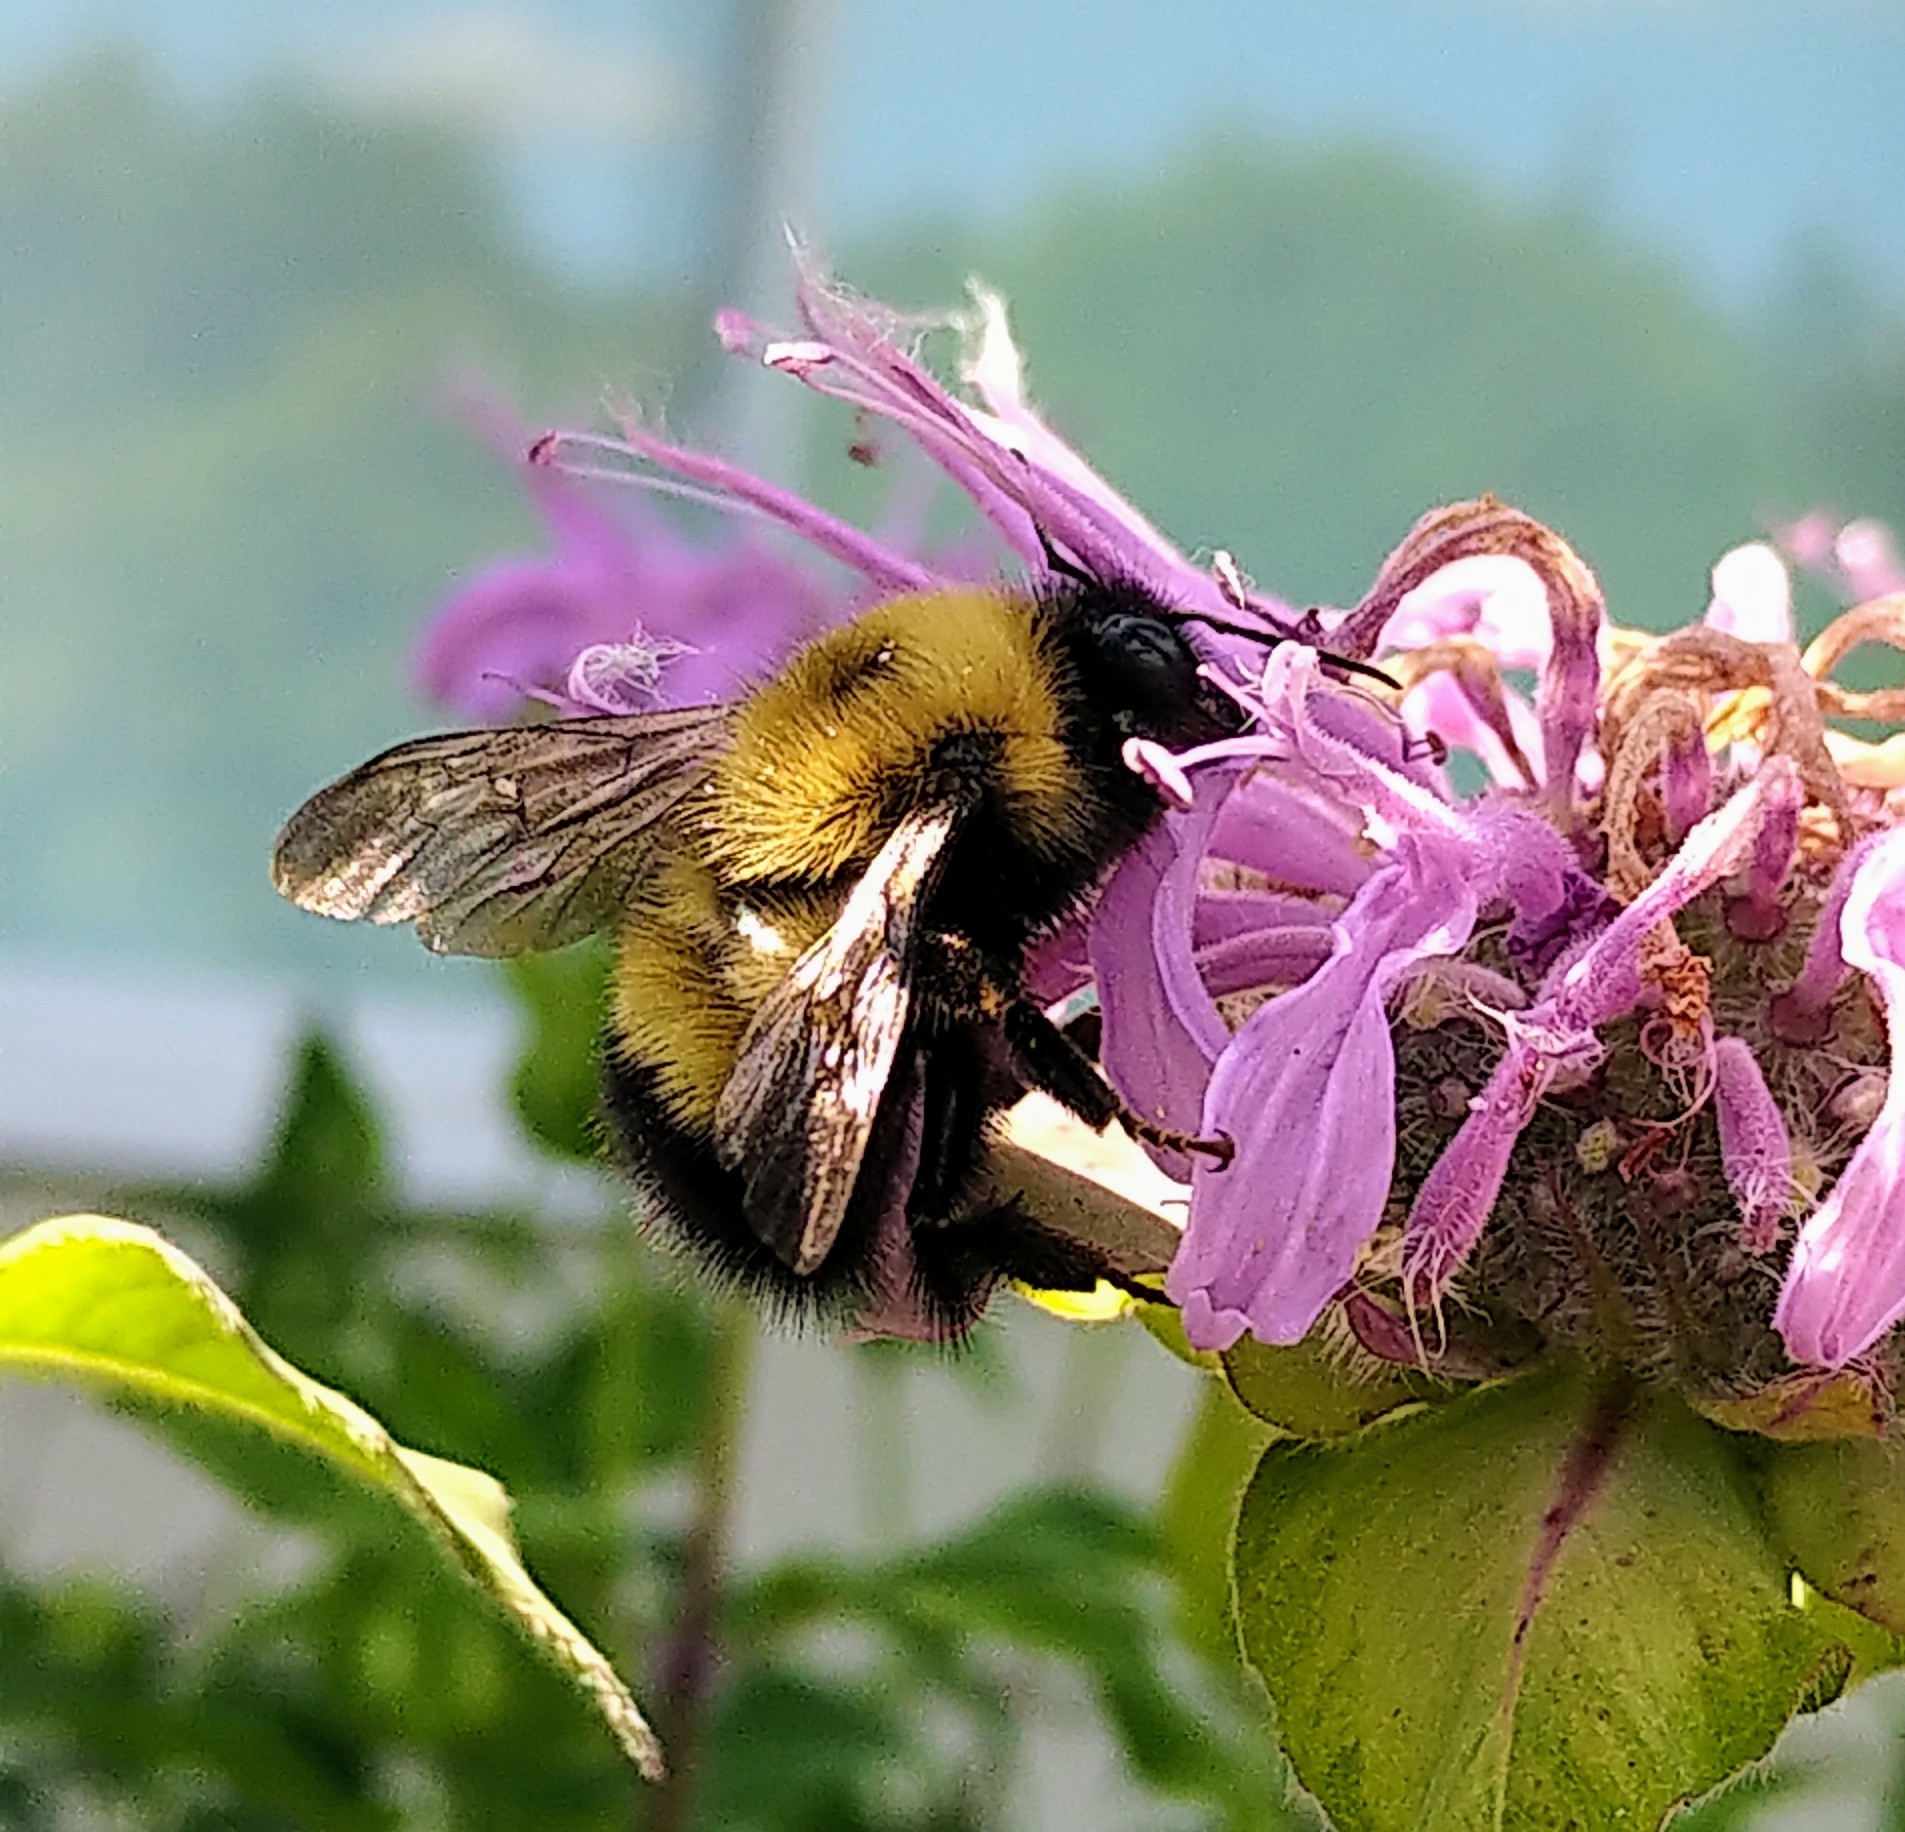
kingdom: Animalia
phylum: Arthropoda
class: Insecta
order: Hymenoptera
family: Apidae
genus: Bombus
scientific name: Bombus perplexus
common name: Confusing bumble bee
